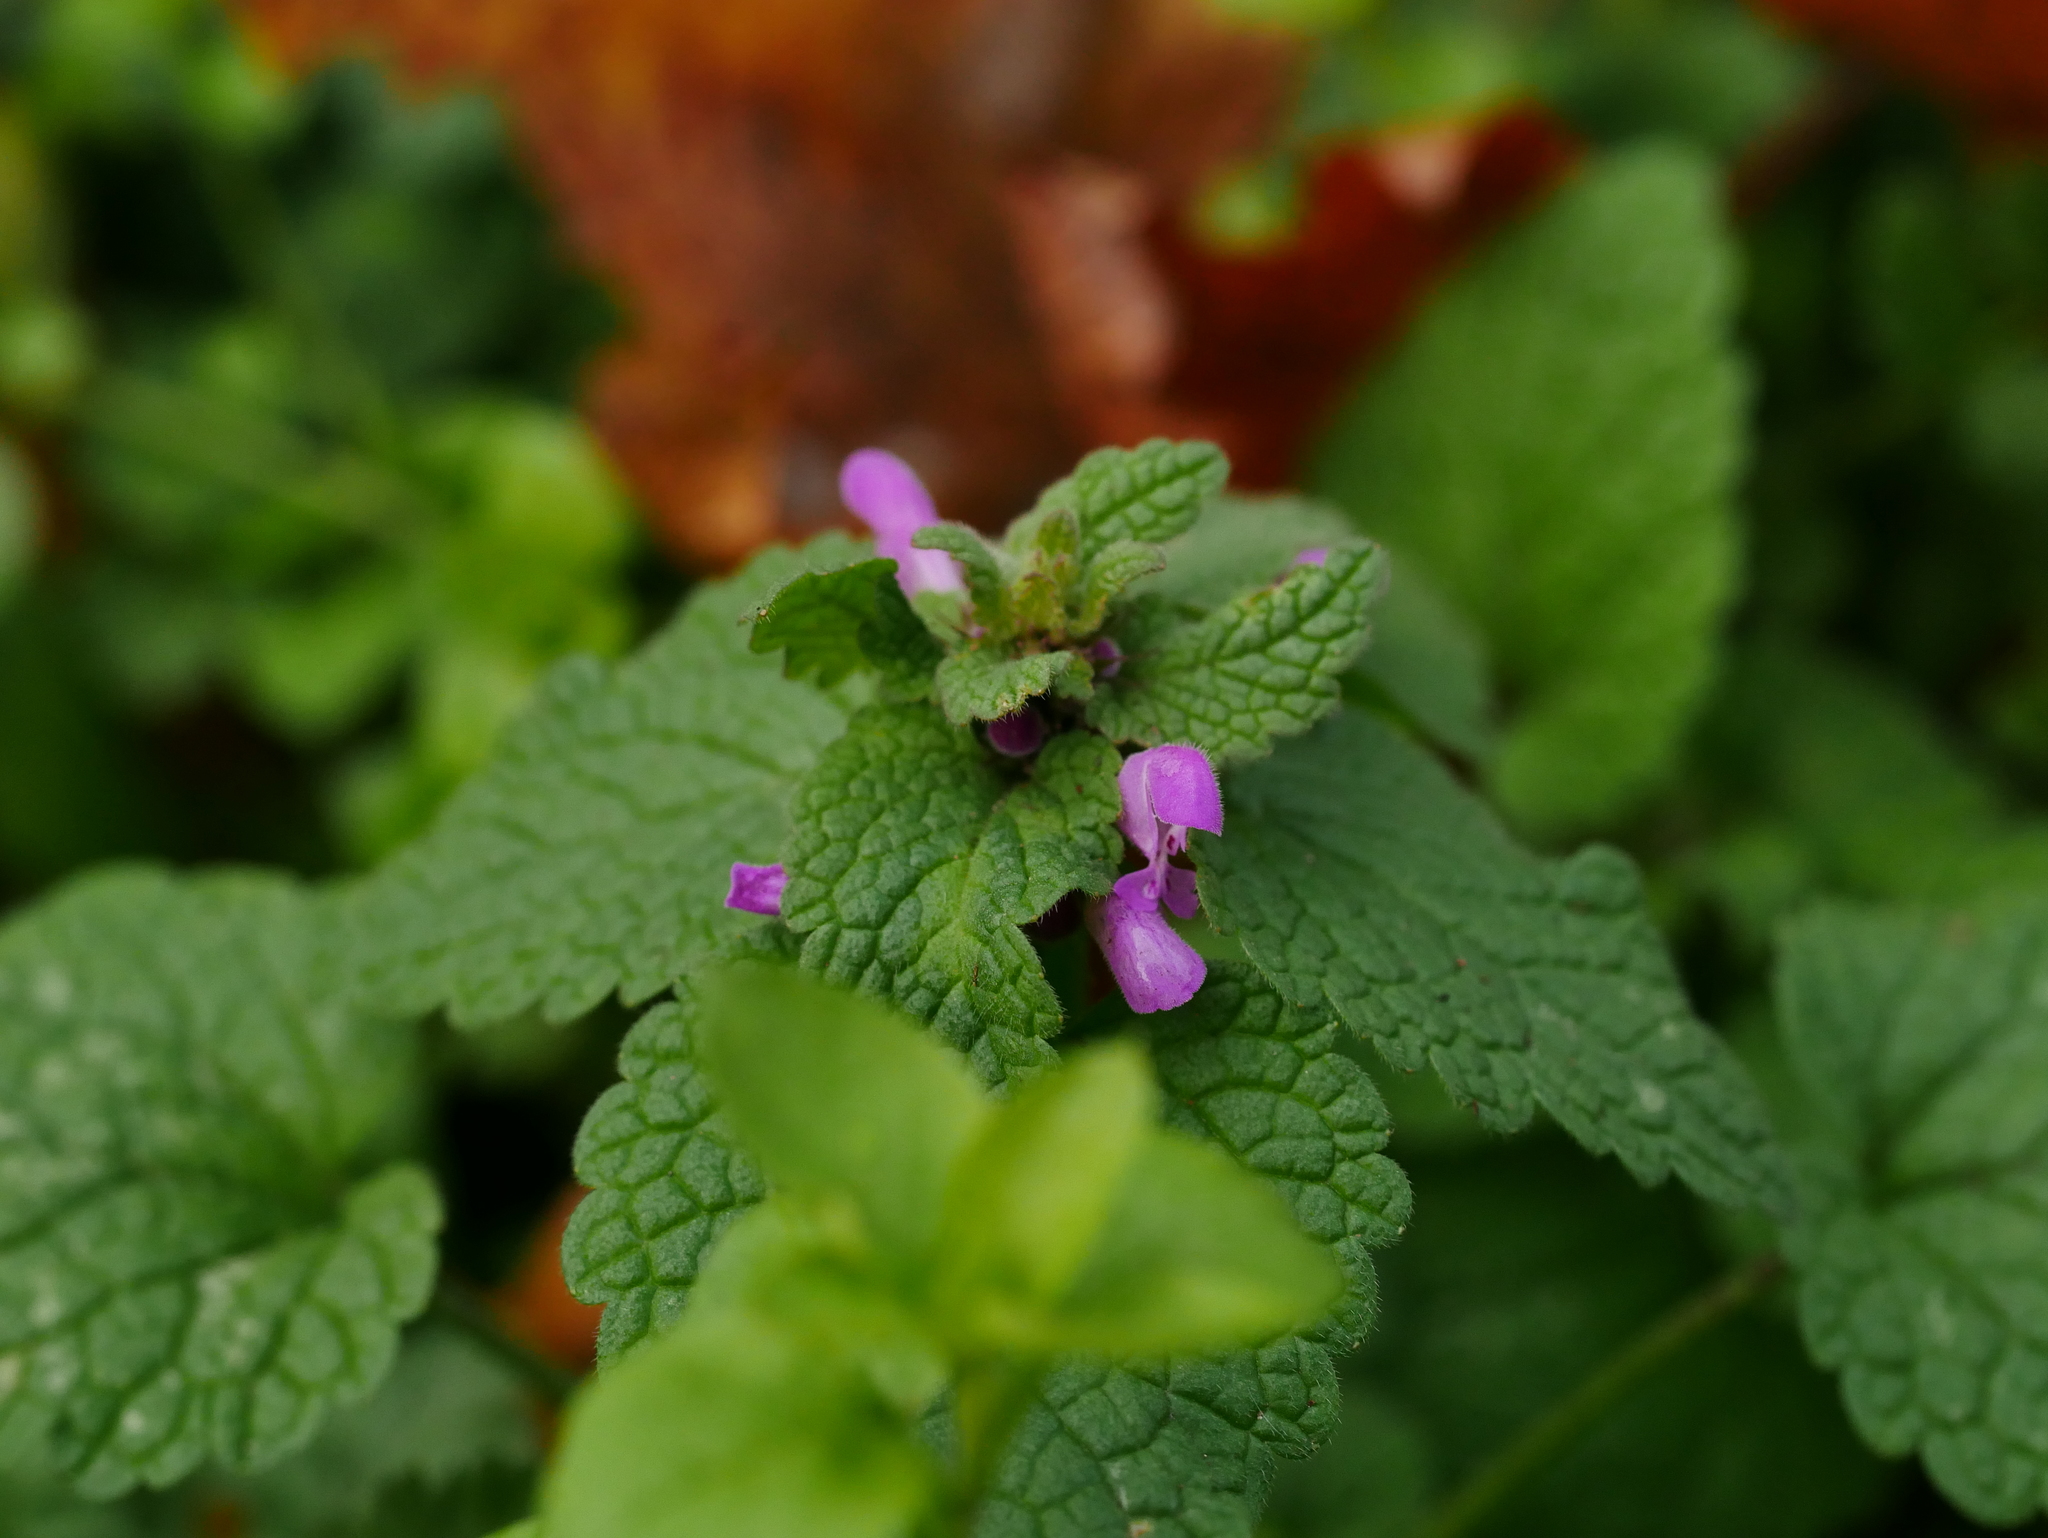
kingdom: Plantae
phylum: Tracheophyta
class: Magnoliopsida
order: Lamiales
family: Lamiaceae
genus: Lamium
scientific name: Lamium purpureum
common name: Red dead-nettle
